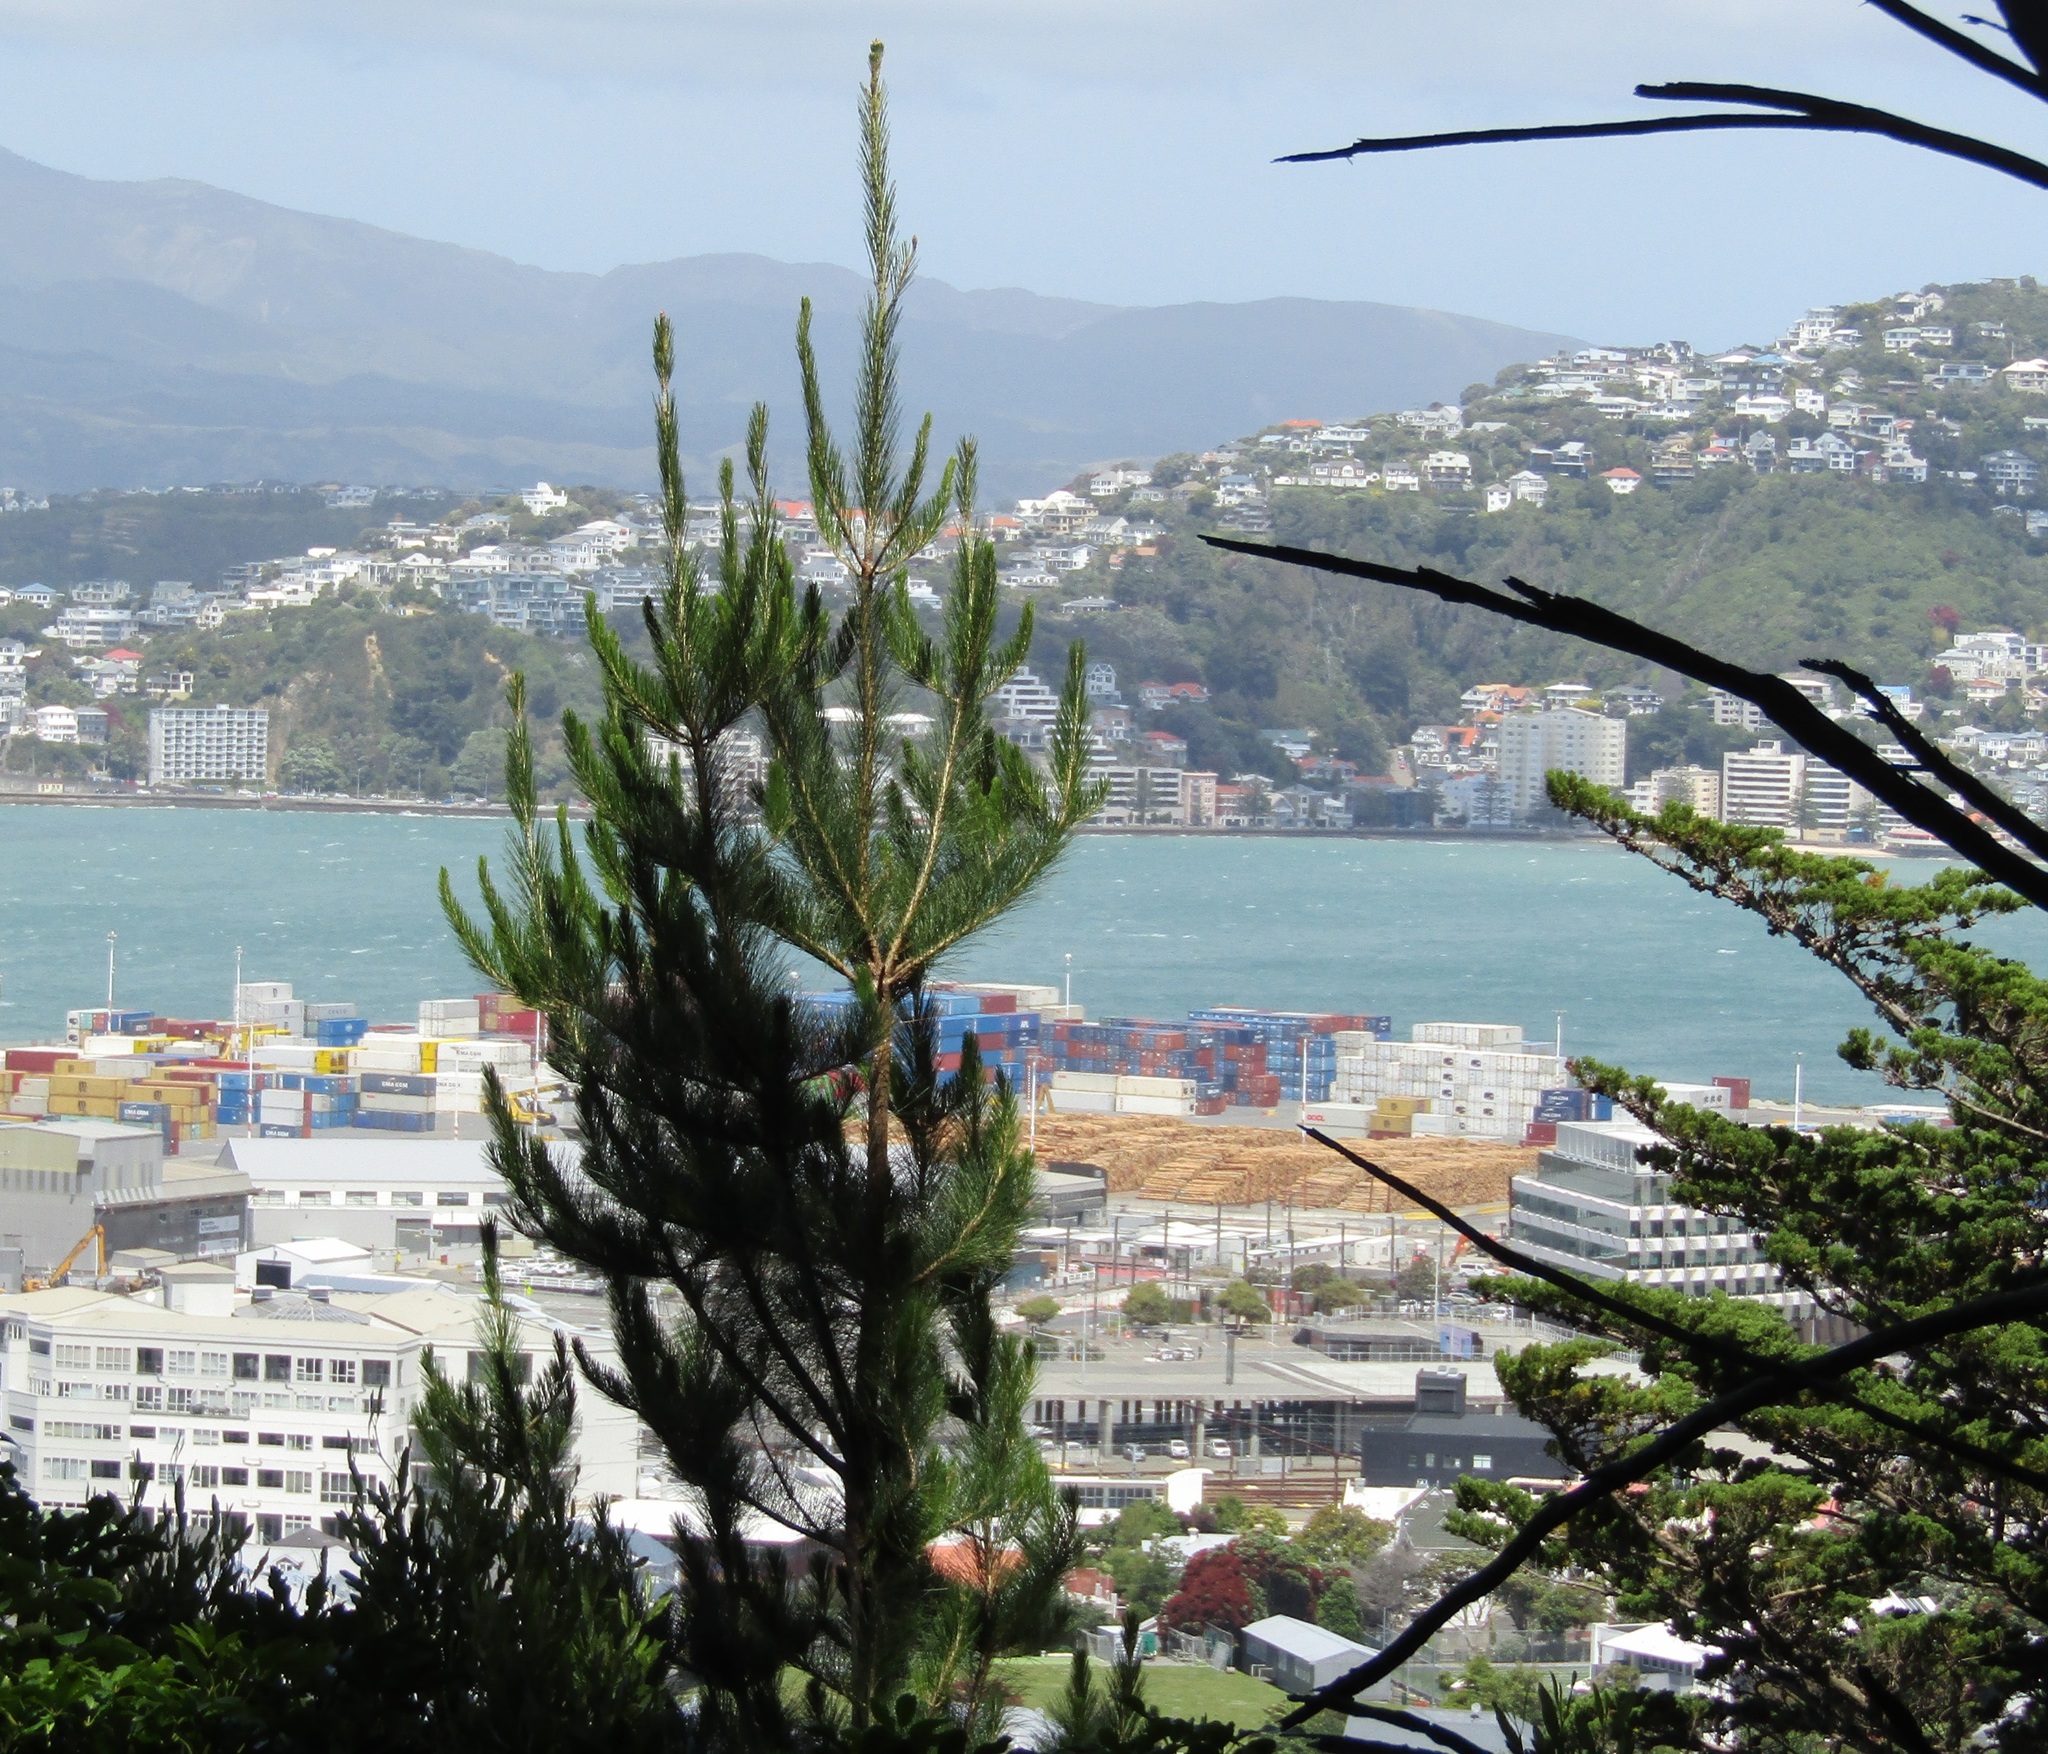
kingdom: Plantae
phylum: Tracheophyta
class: Pinopsida
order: Pinales
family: Pinaceae
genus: Pinus
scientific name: Pinus radiata
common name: Monterey pine
